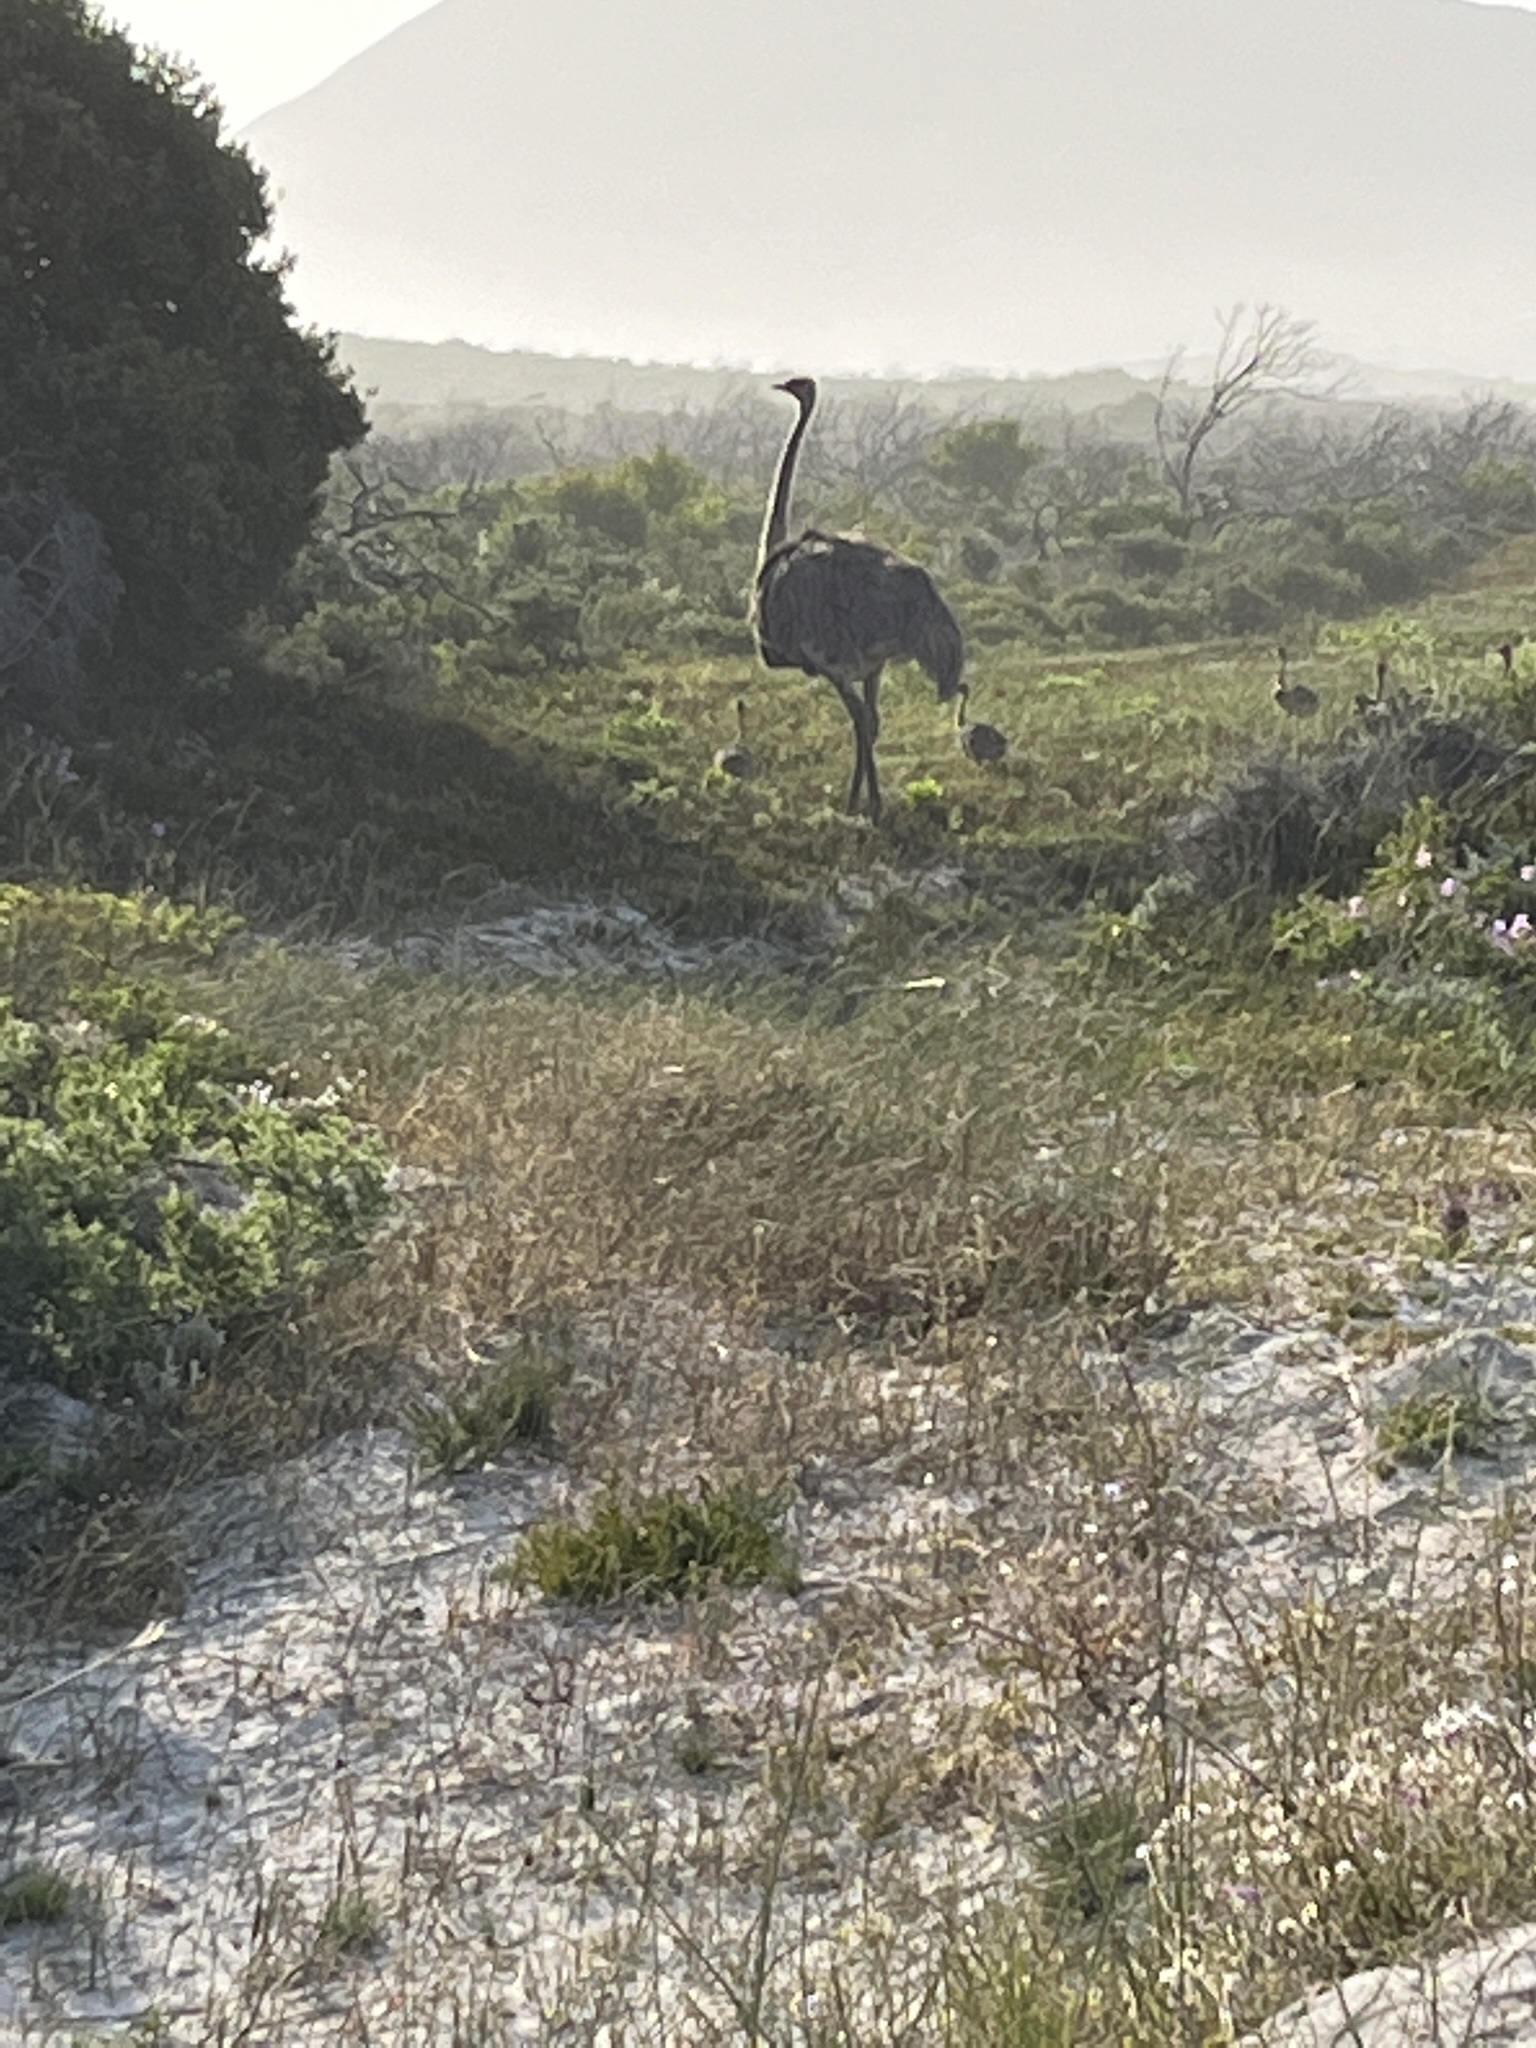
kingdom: Animalia
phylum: Chordata
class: Aves
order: Struthioniformes
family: Struthionidae
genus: Struthio
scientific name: Struthio camelus
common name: Common ostrich
